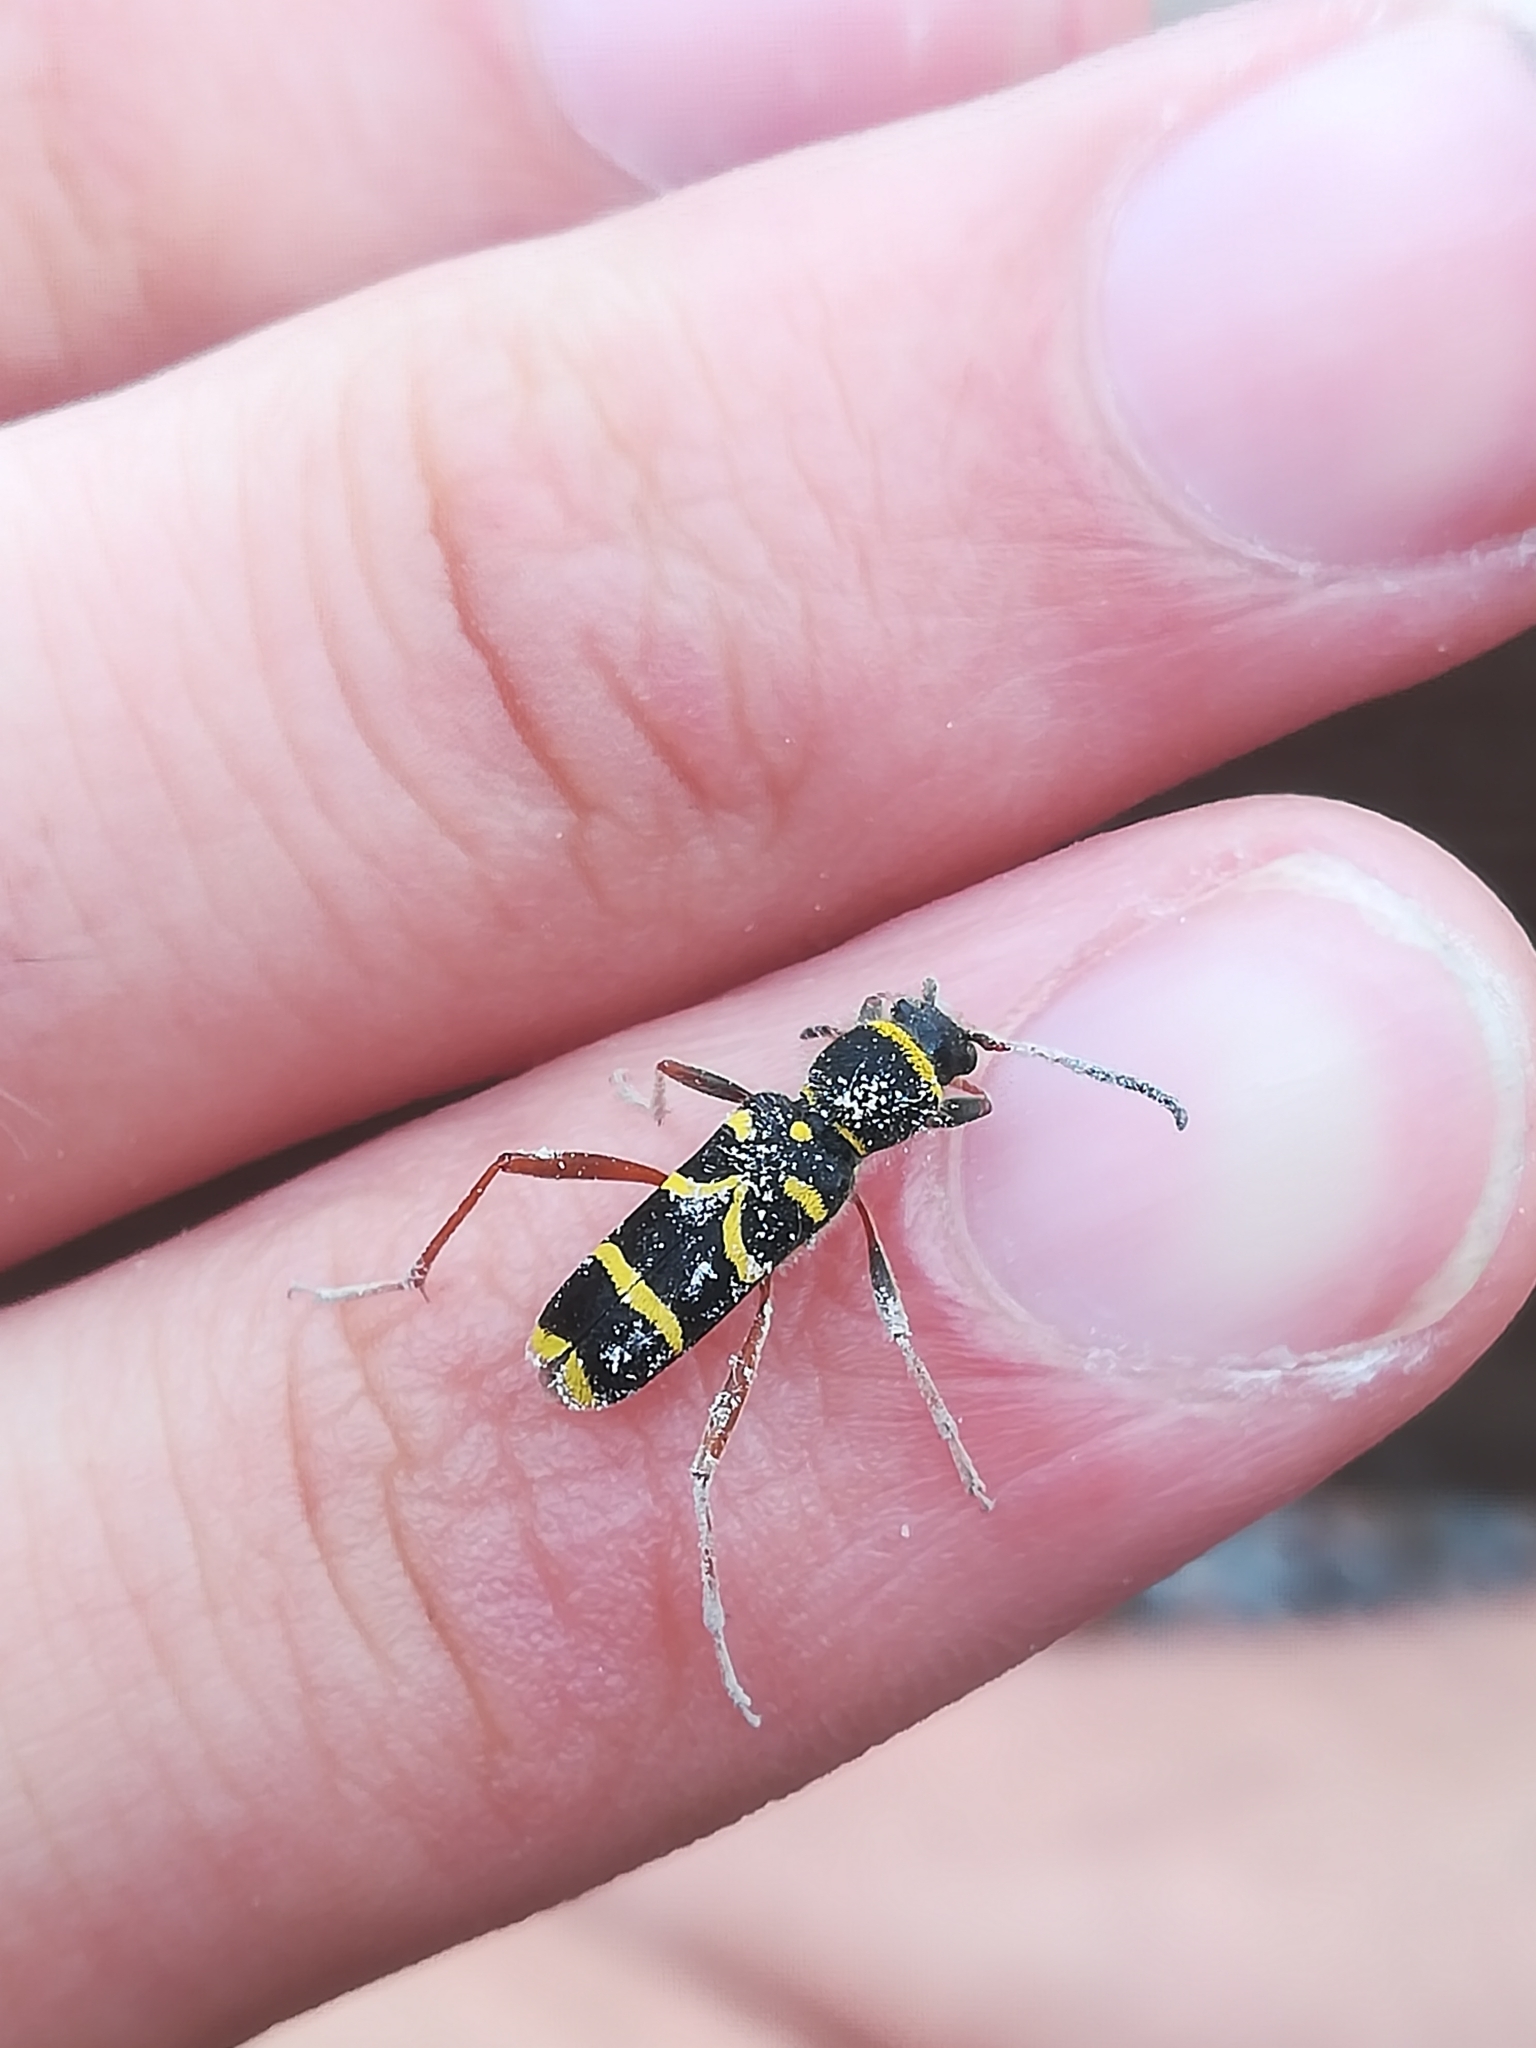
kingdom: Animalia
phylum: Arthropoda
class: Insecta
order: Coleoptera
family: Cerambycidae
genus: Clytus
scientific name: Clytus arietis
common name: Wasp beetle
